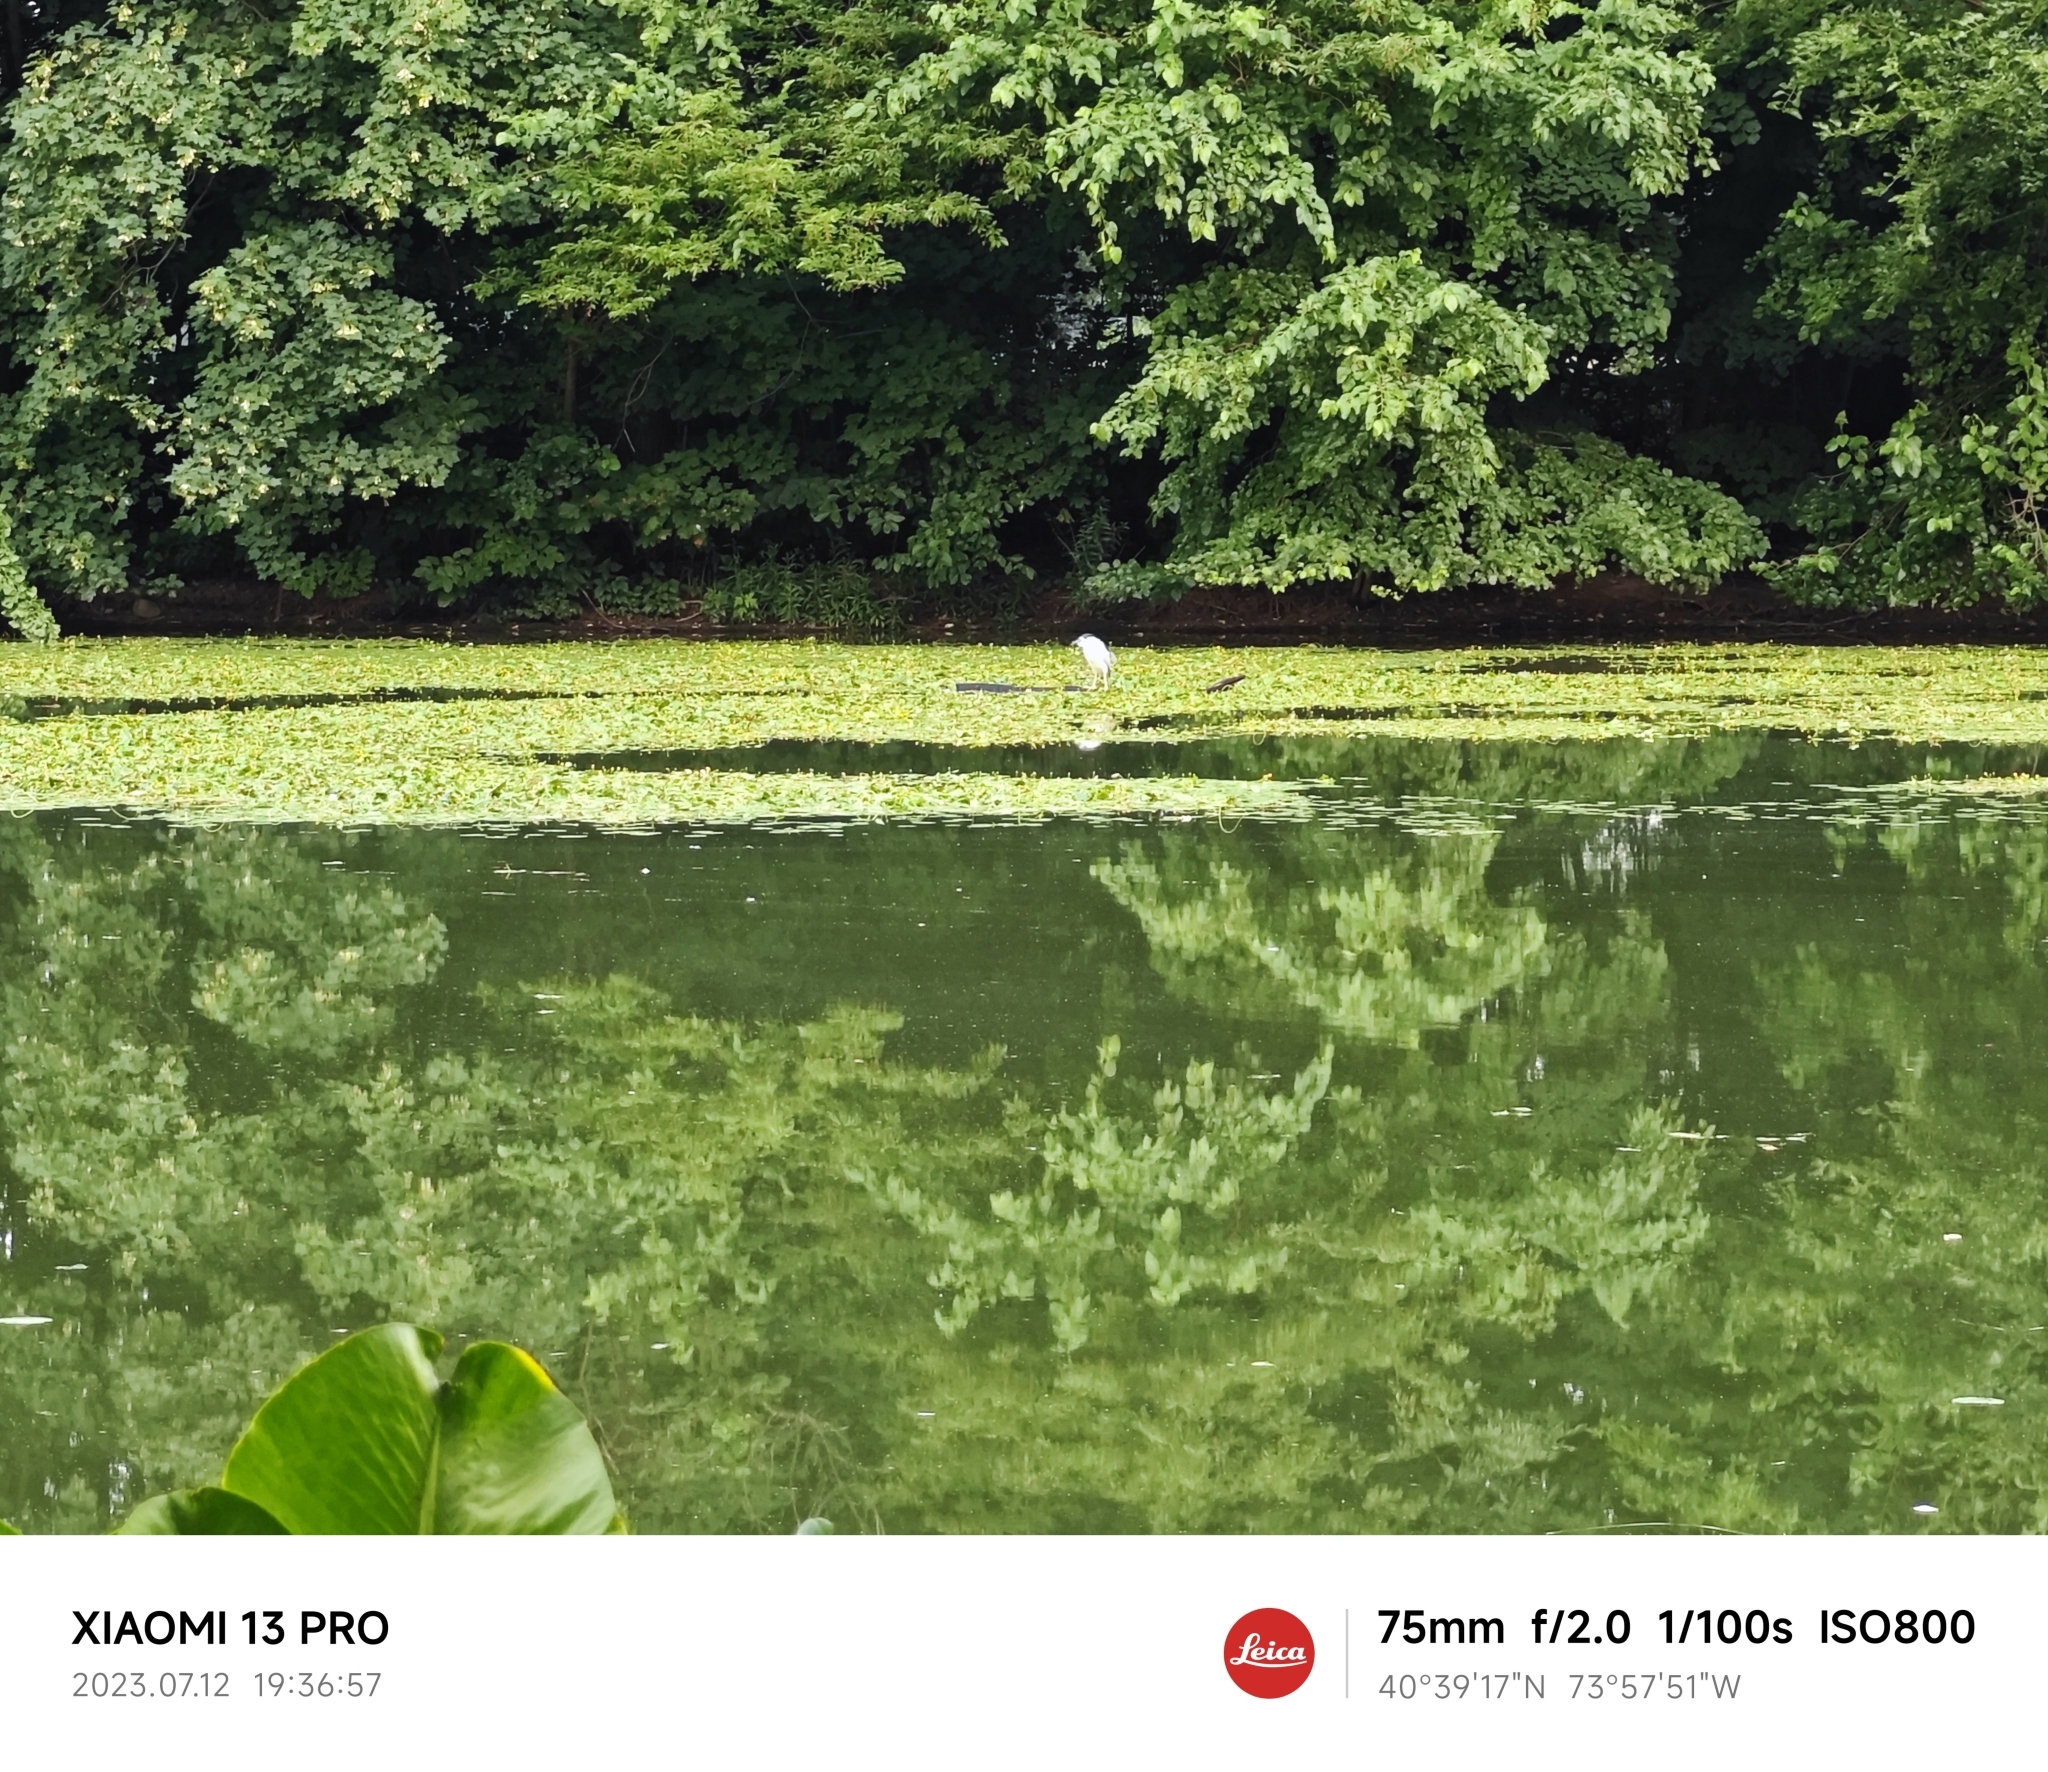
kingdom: Animalia
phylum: Chordata
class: Aves
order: Pelecaniformes
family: Ardeidae
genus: Nycticorax
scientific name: Nycticorax nycticorax
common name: Black-crowned night heron
